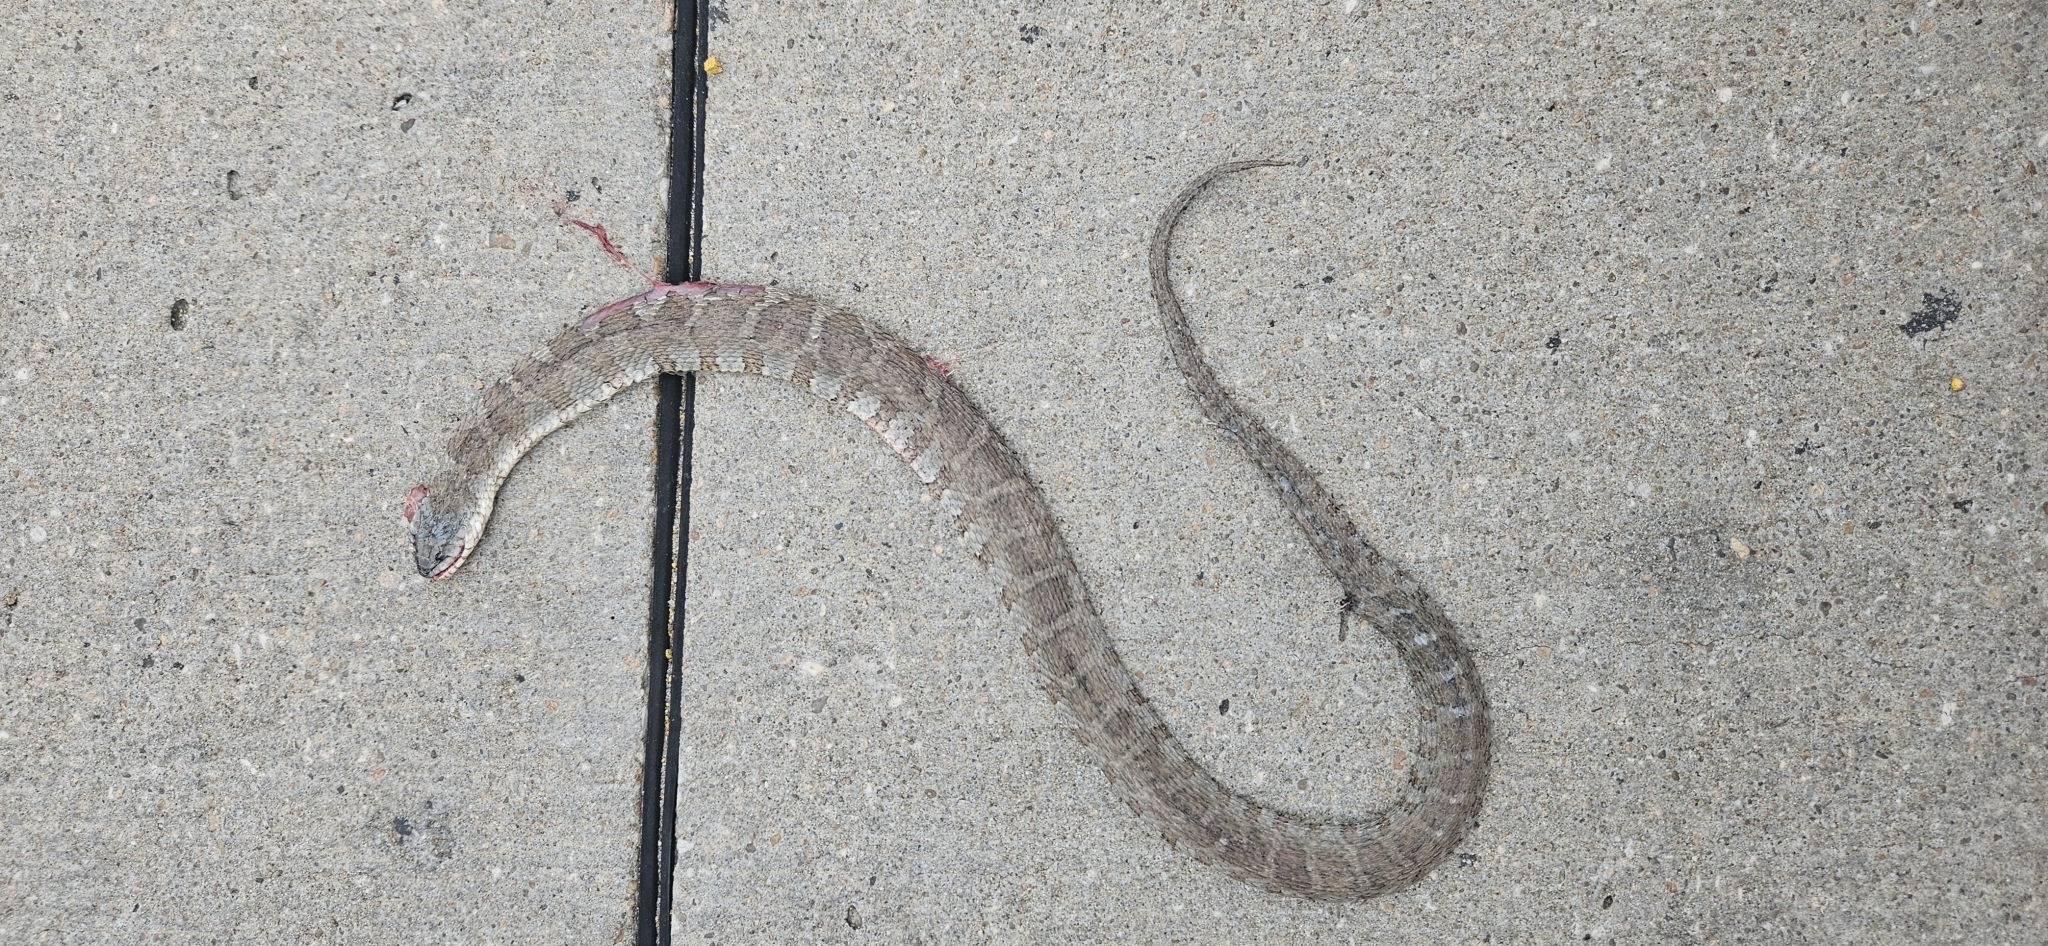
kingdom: Animalia
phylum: Chordata
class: Squamata
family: Colubridae
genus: Nerodia
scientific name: Nerodia sipedon
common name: Northern water snake
